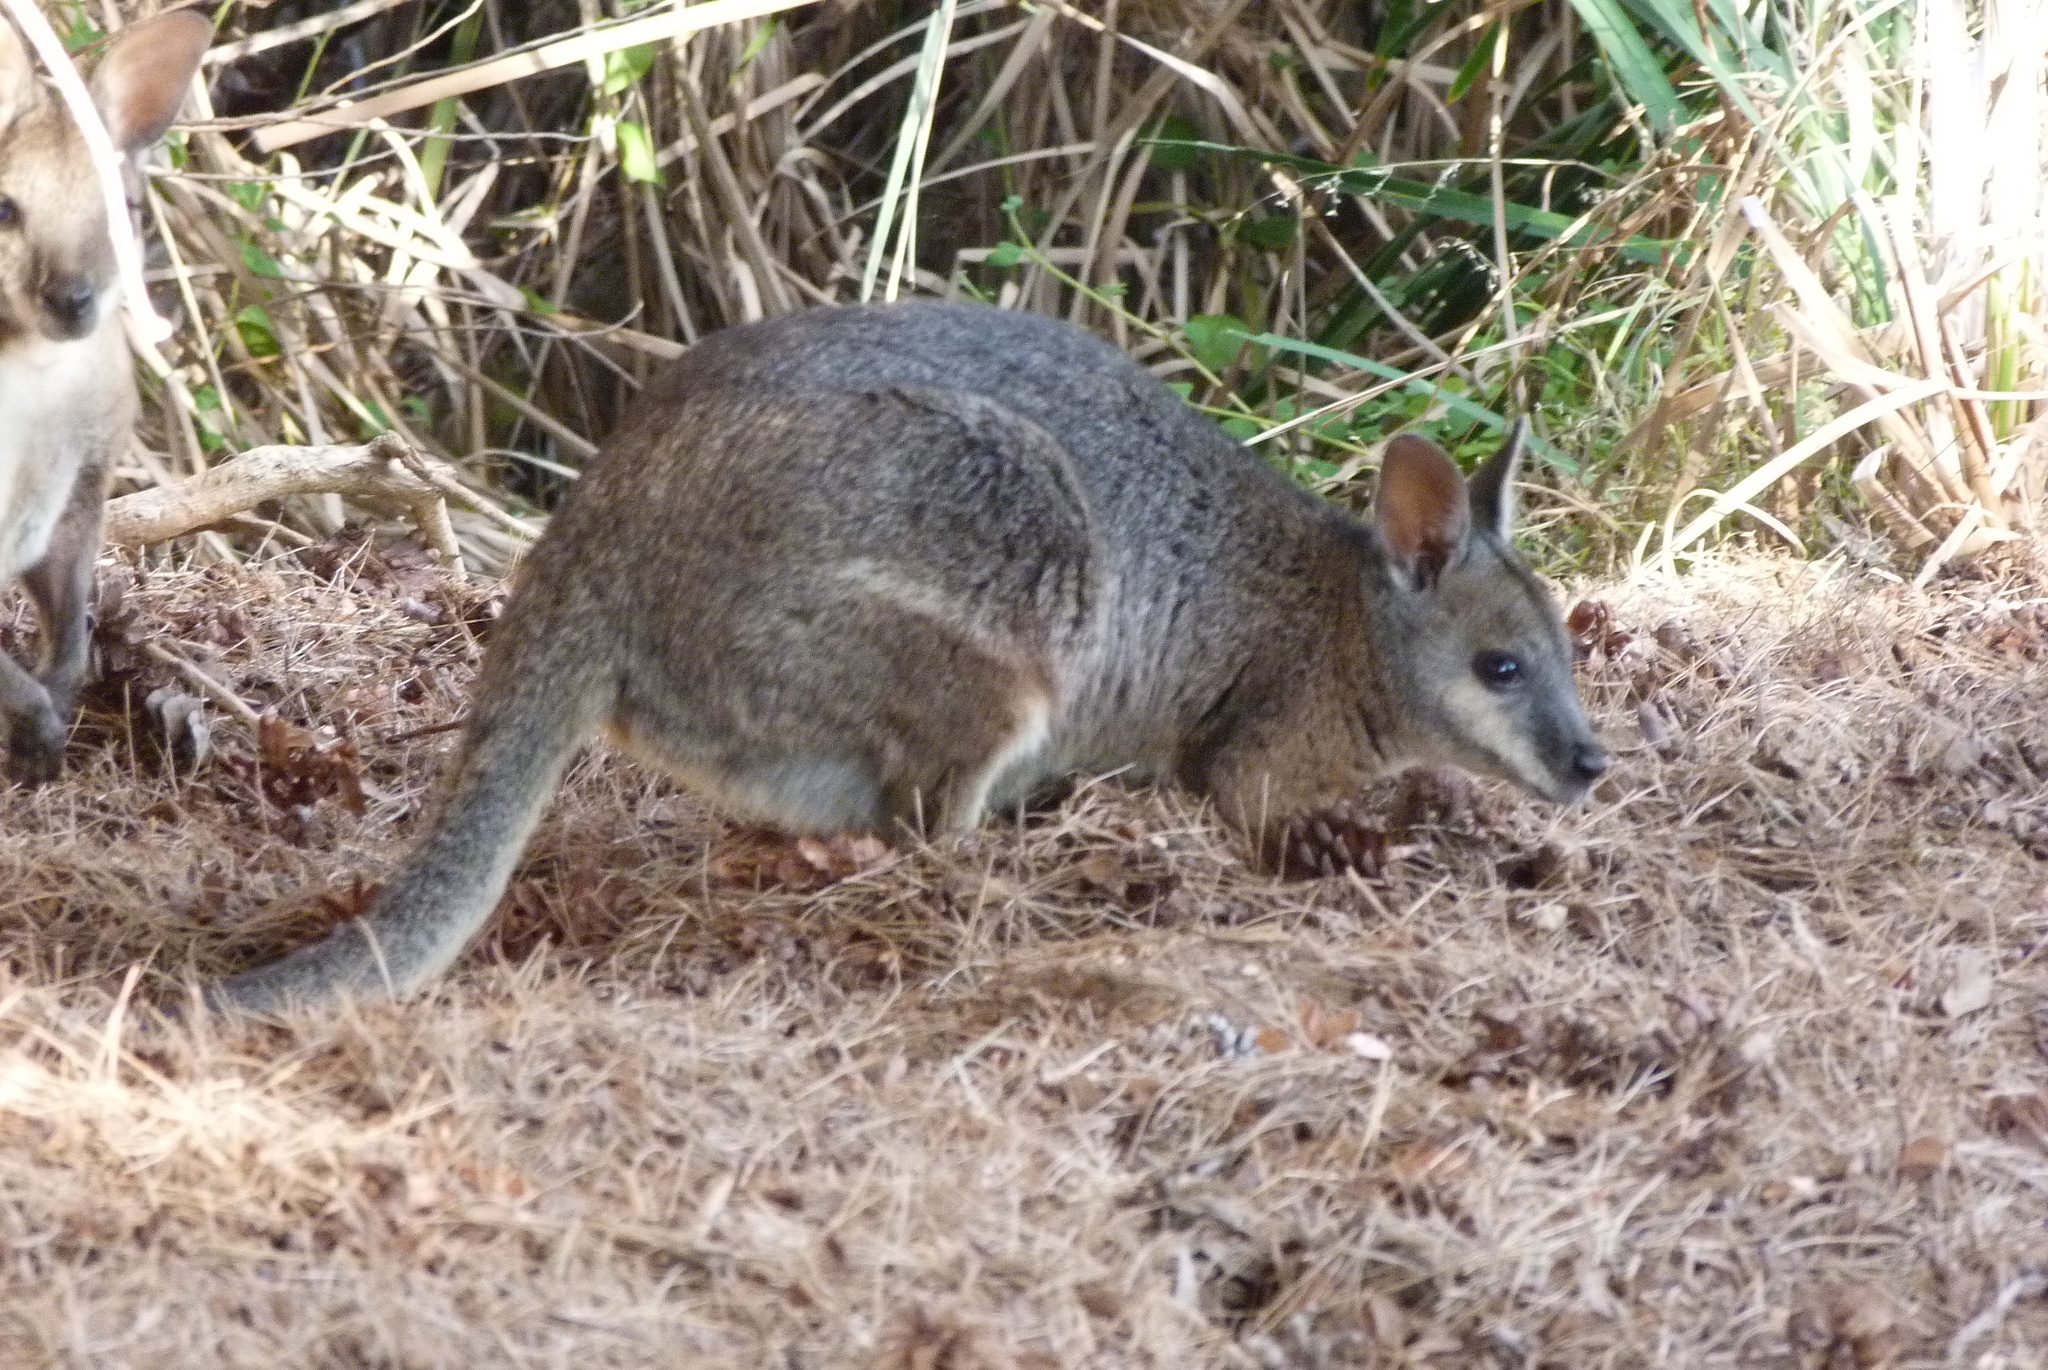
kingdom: Animalia
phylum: Chordata
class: Mammalia
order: Diprotodontia
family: Macropodidae
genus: Macropus
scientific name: Macropus eugenii
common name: Tammar wallaby
